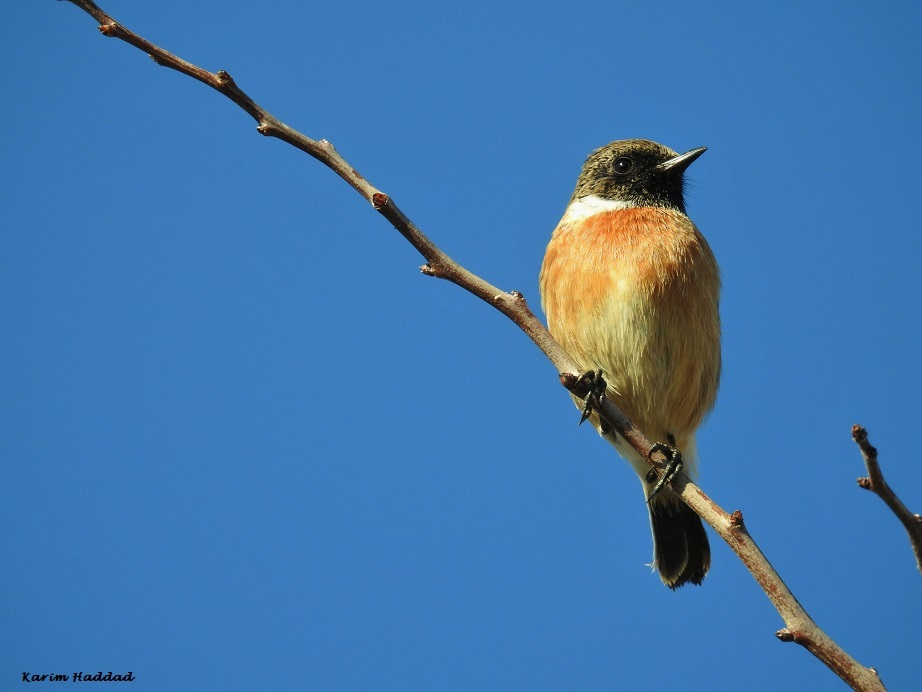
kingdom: Animalia
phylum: Chordata
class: Aves
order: Passeriformes
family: Muscicapidae
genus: Saxicola
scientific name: Saxicola rubicola
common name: European stonechat
